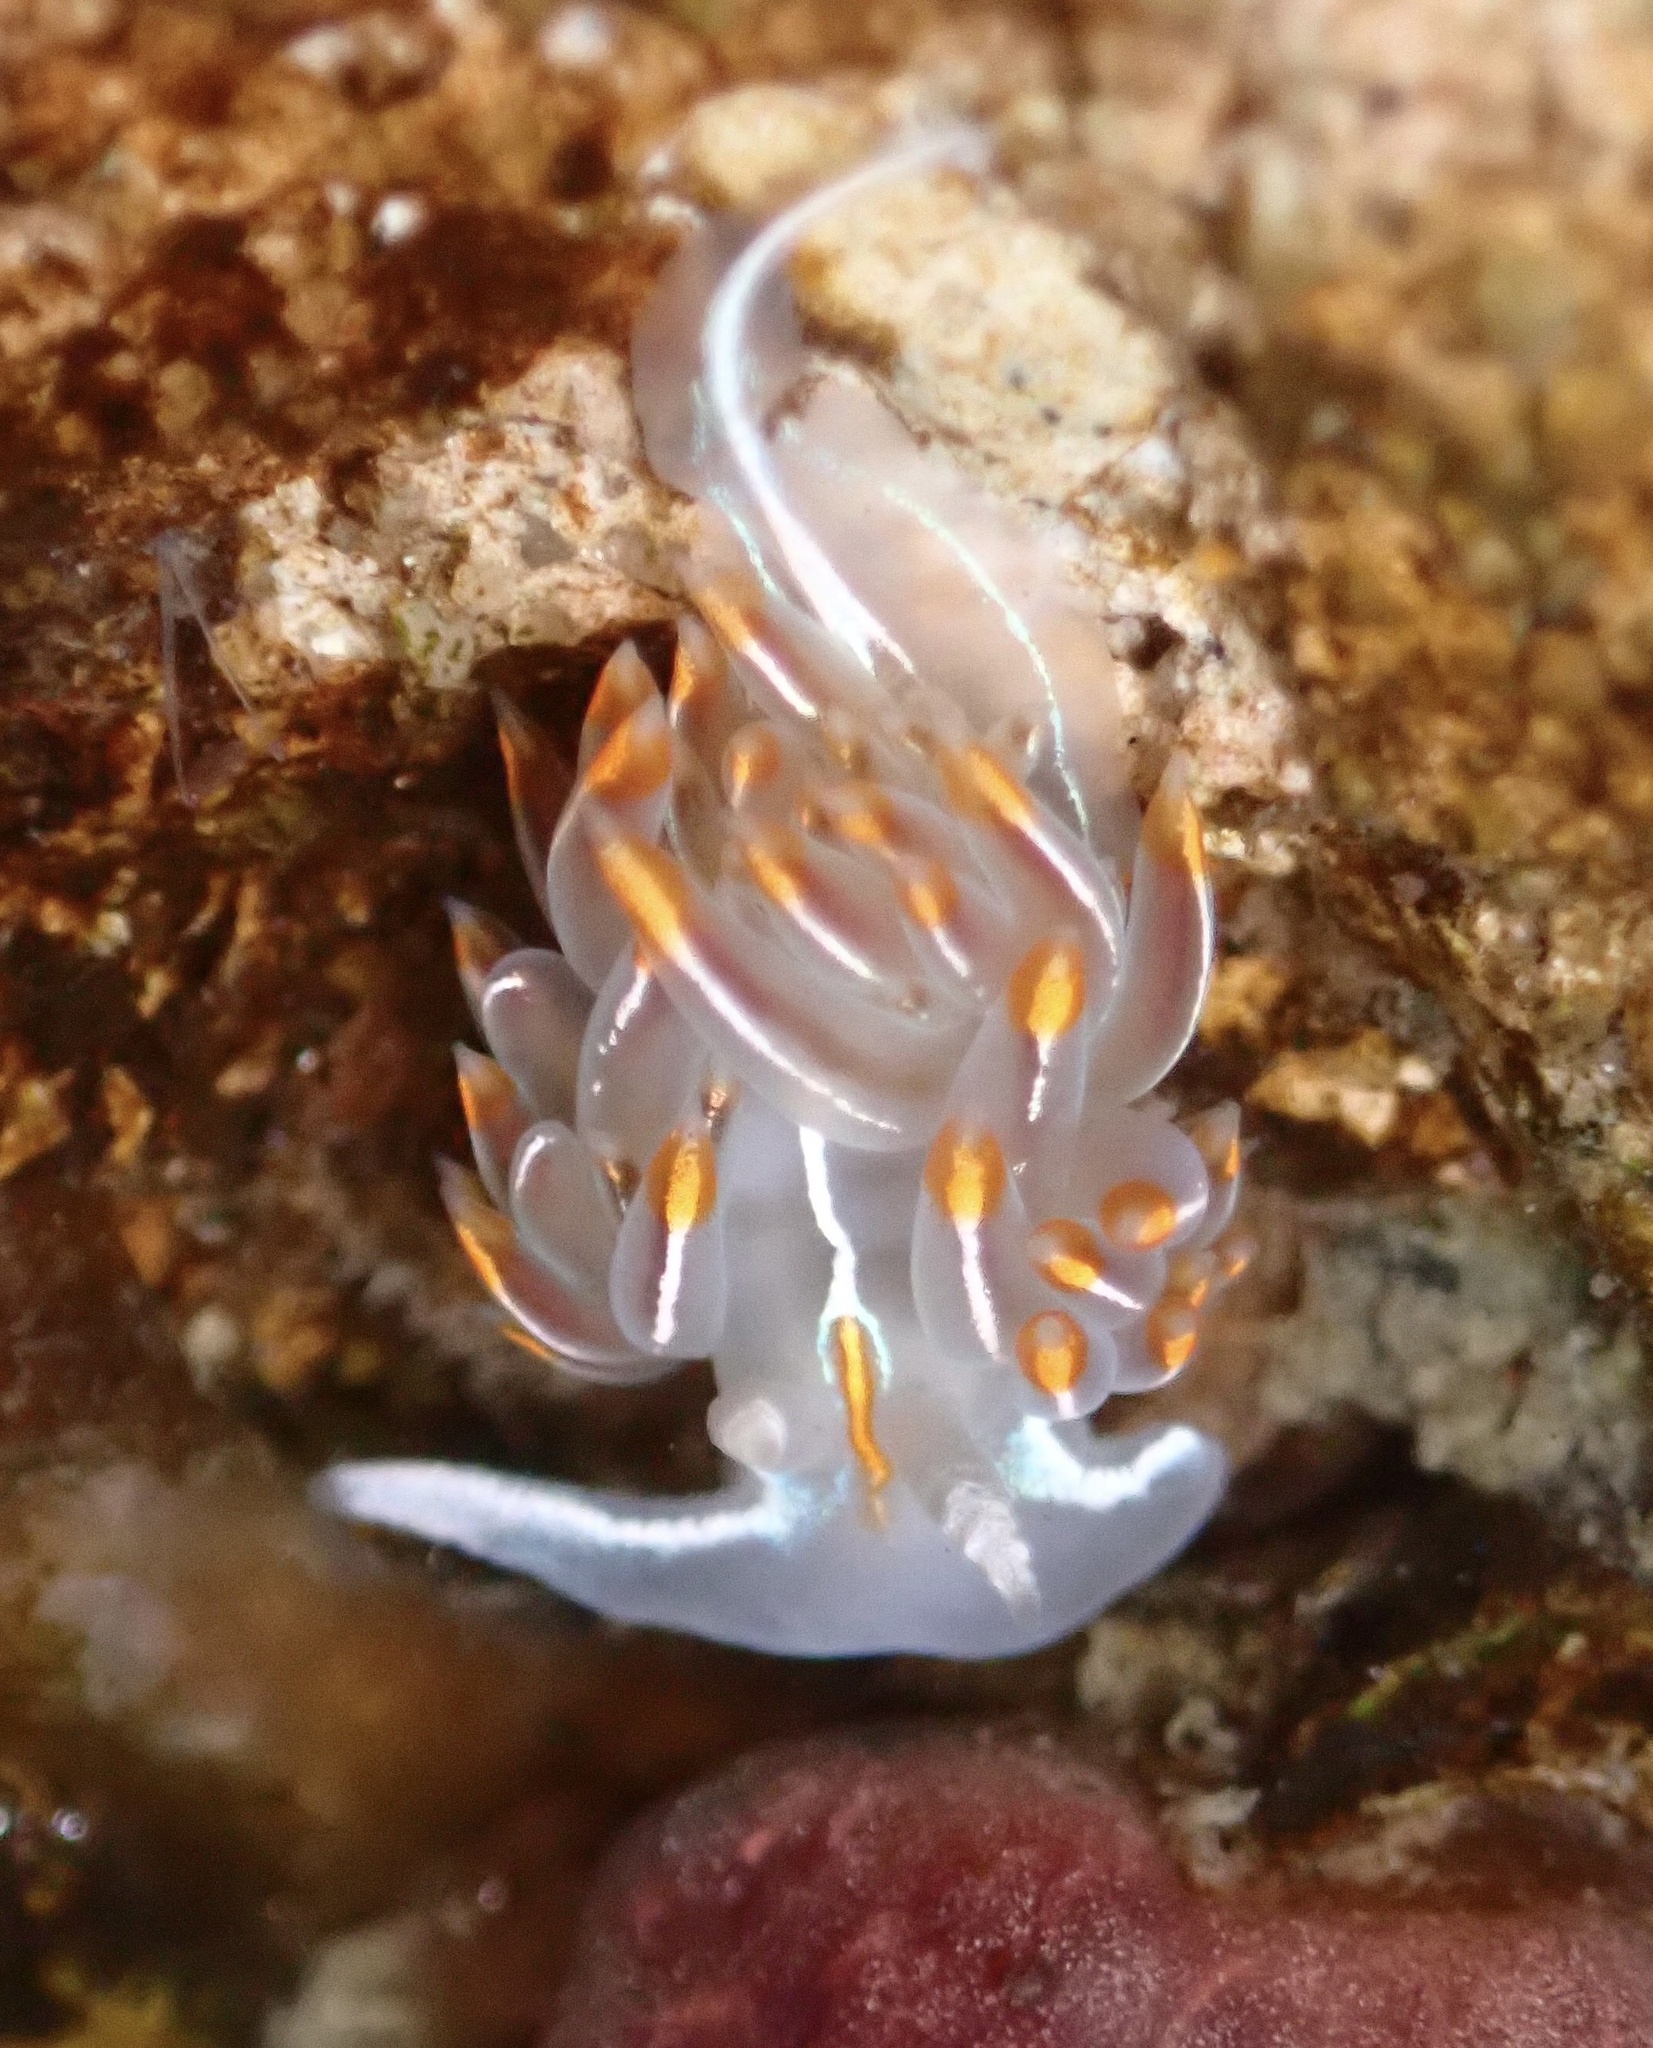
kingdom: Animalia
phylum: Mollusca
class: Gastropoda
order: Nudibranchia
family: Myrrhinidae
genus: Hermissenda
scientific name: Hermissenda crassicornis
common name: Hermissenda
